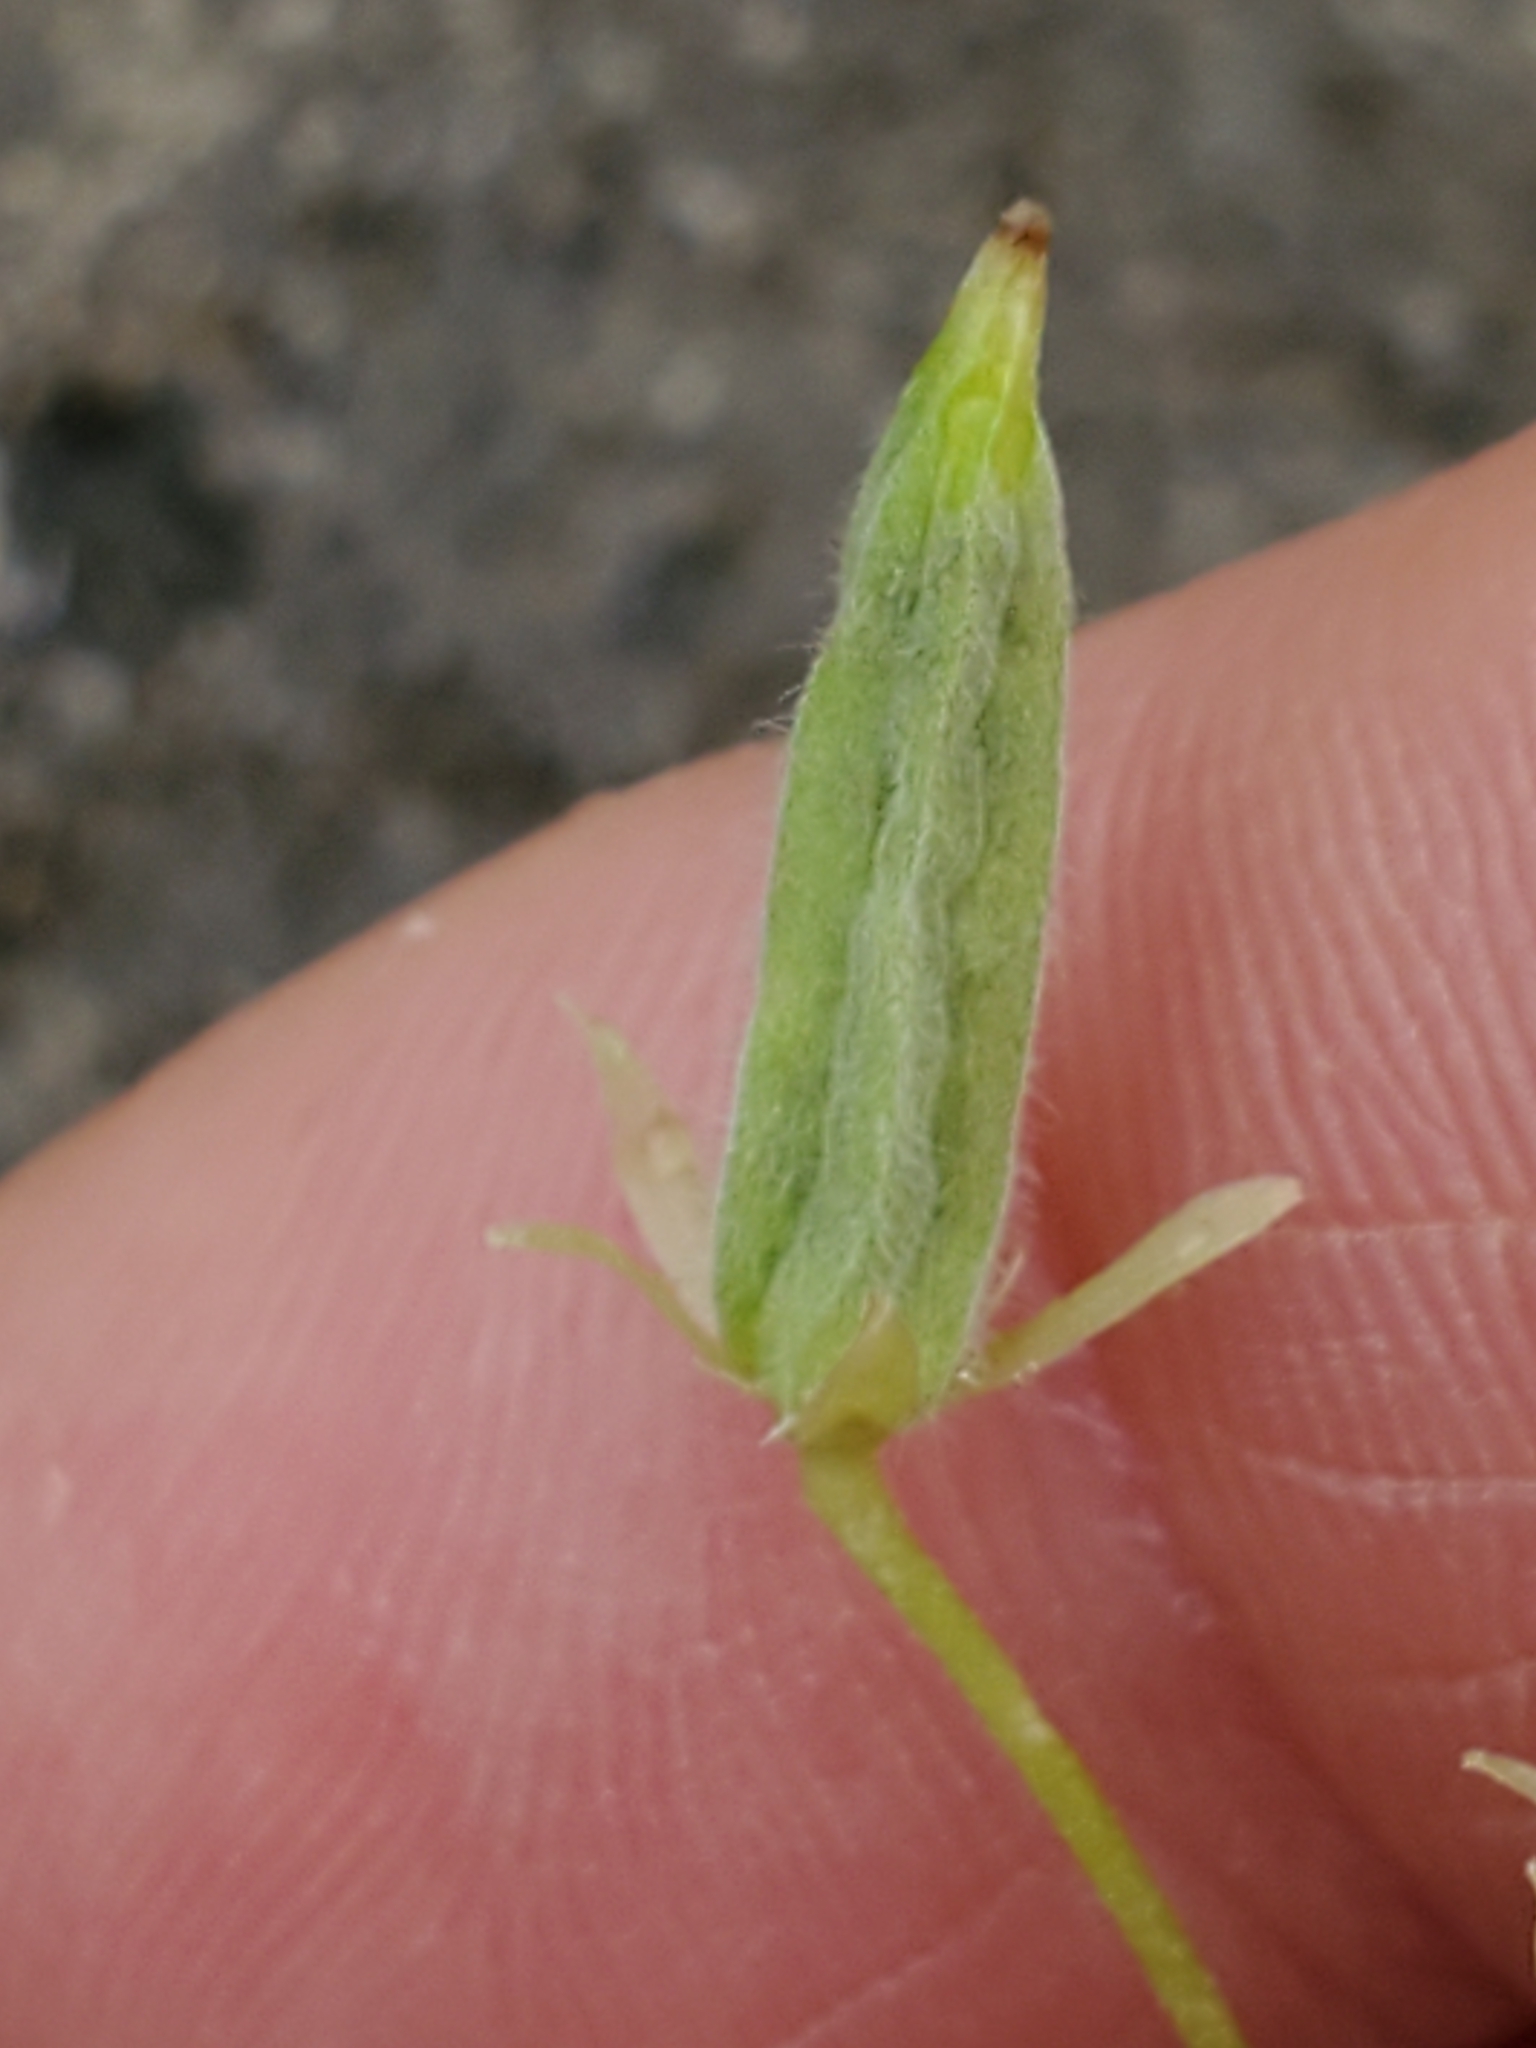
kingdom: Plantae
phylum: Tracheophyta
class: Magnoliopsida
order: Oxalidales
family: Oxalidaceae
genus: Oxalis
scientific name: Oxalis dillenii
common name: Sussex yellow-sorrel
